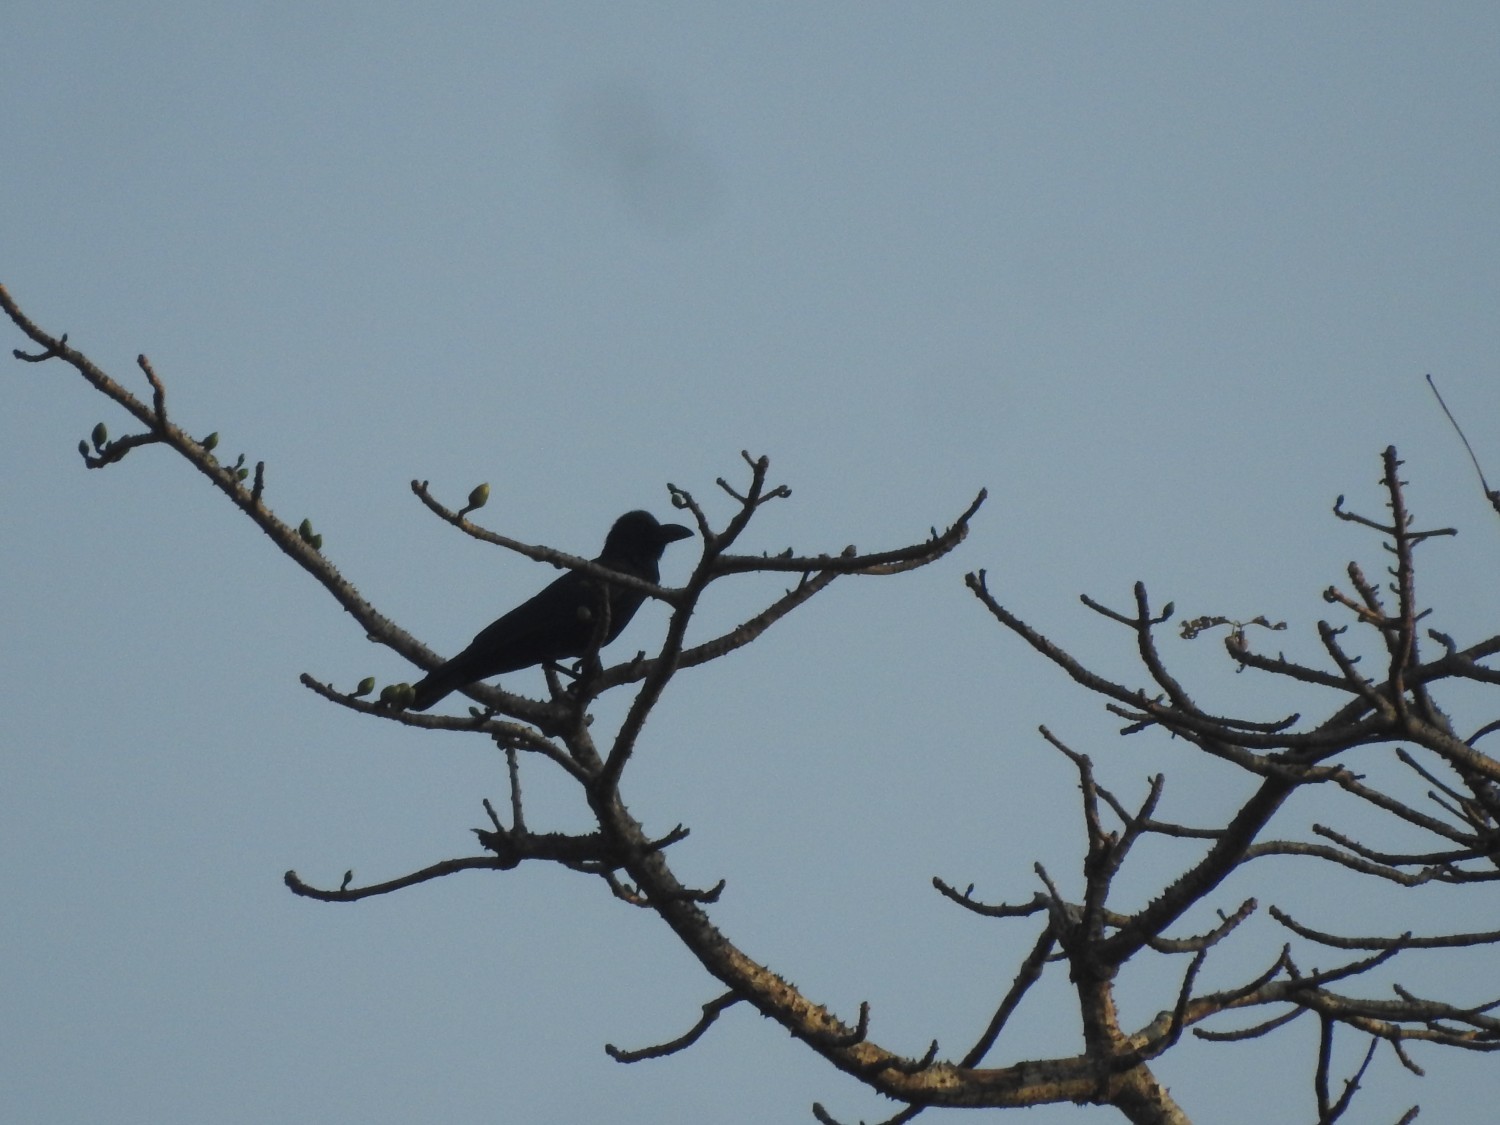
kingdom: Animalia
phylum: Chordata
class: Aves
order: Passeriformes
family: Corvidae
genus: Corvus
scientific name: Corvus macrorhynchos
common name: Large-billed crow
